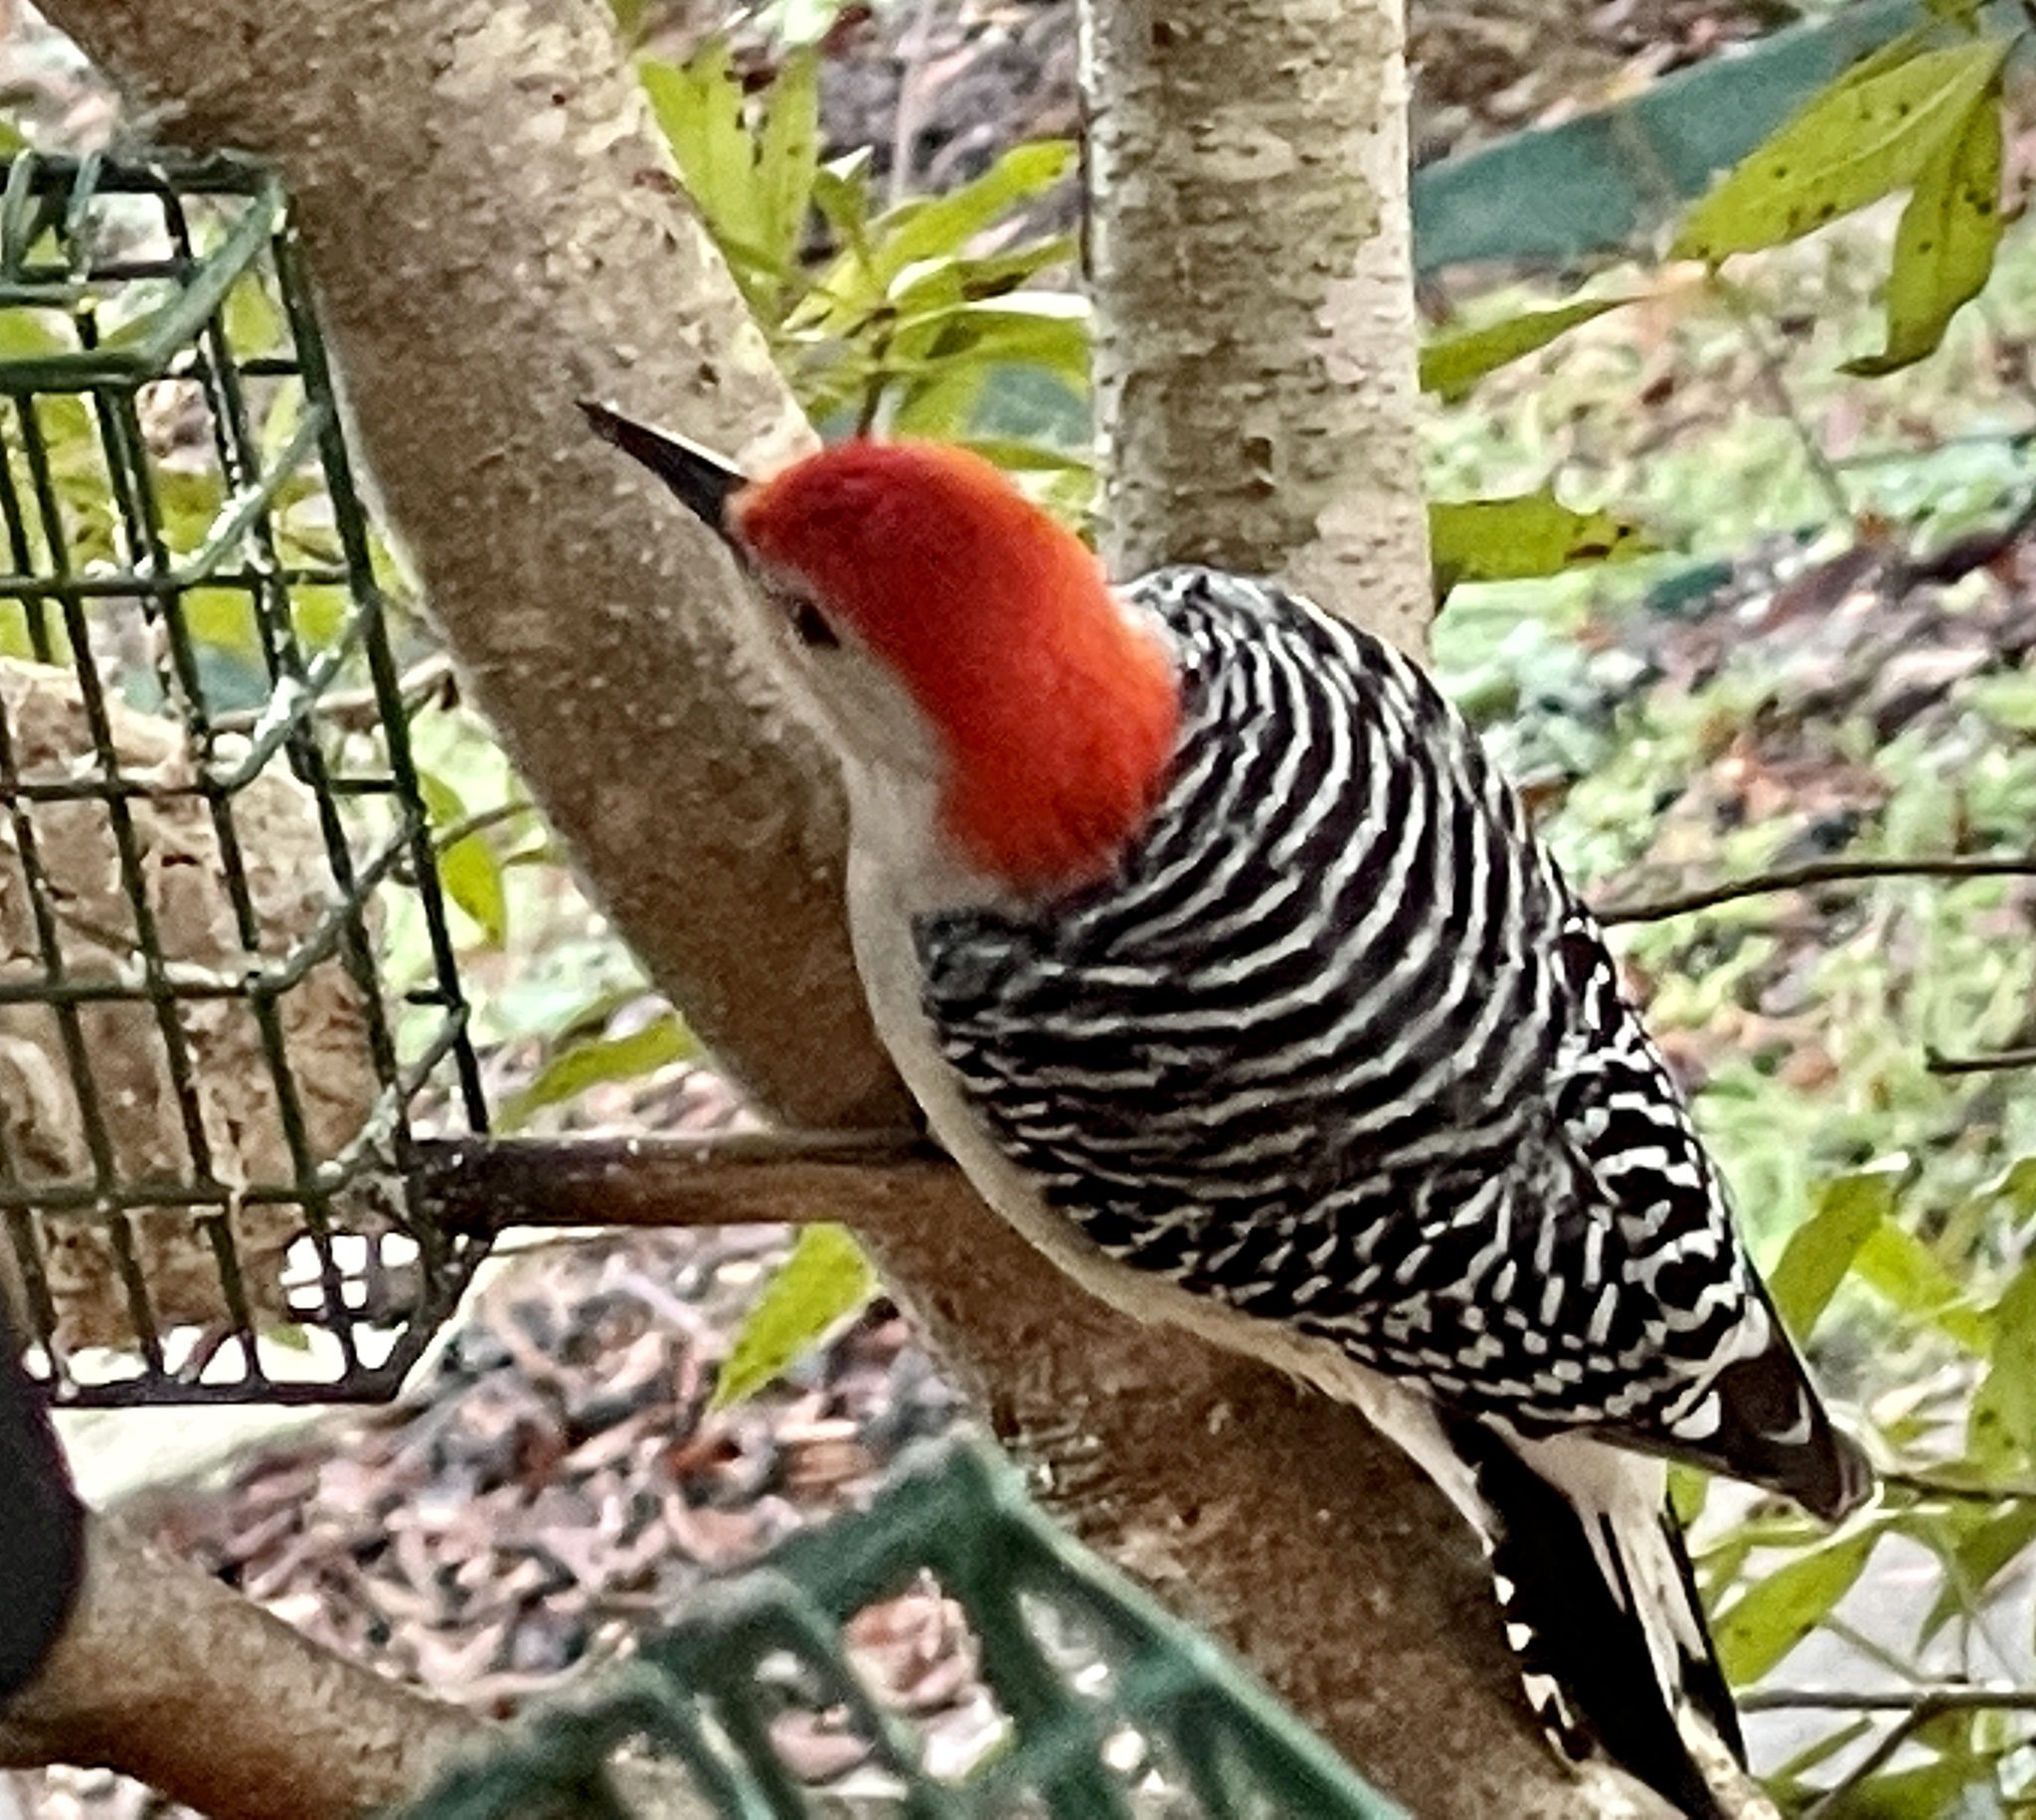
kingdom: Animalia
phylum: Chordata
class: Aves
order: Piciformes
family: Picidae
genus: Melanerpes
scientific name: Melanerpes carolinus
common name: Red-bellied woodpecker
